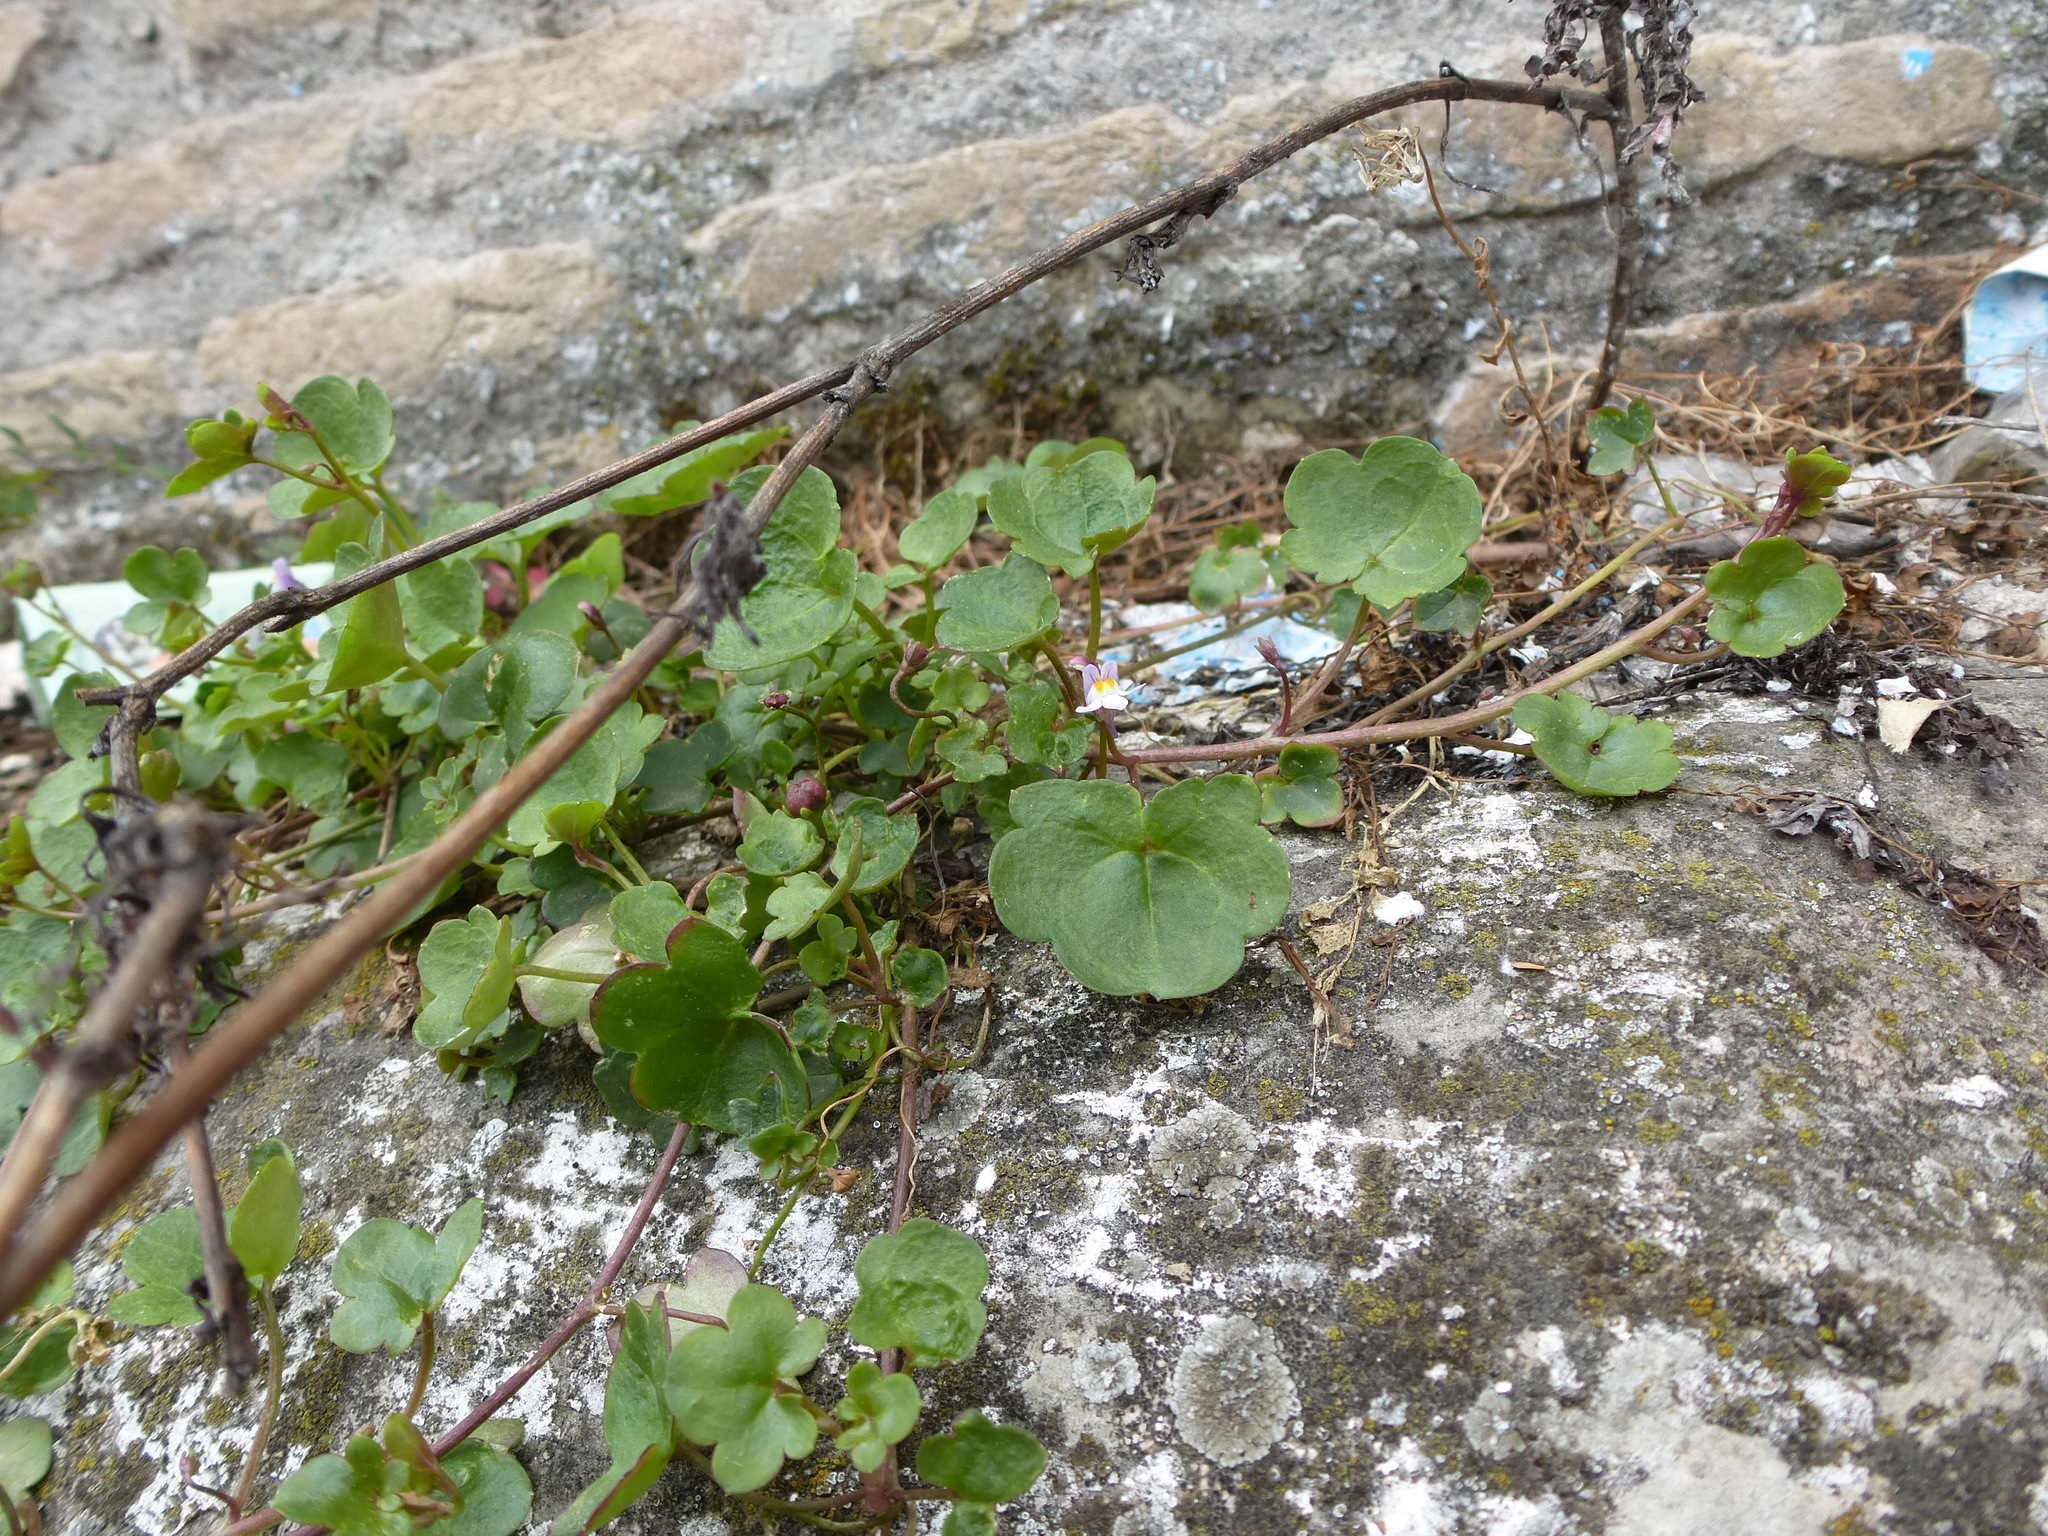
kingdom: Plantae
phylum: Tracheophyta
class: Magnoliopsida
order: Lamiales
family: Plantaginaceae
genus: Cymbalaria
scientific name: Cymbalaria muralis
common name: Ivy-leaved toadflax
